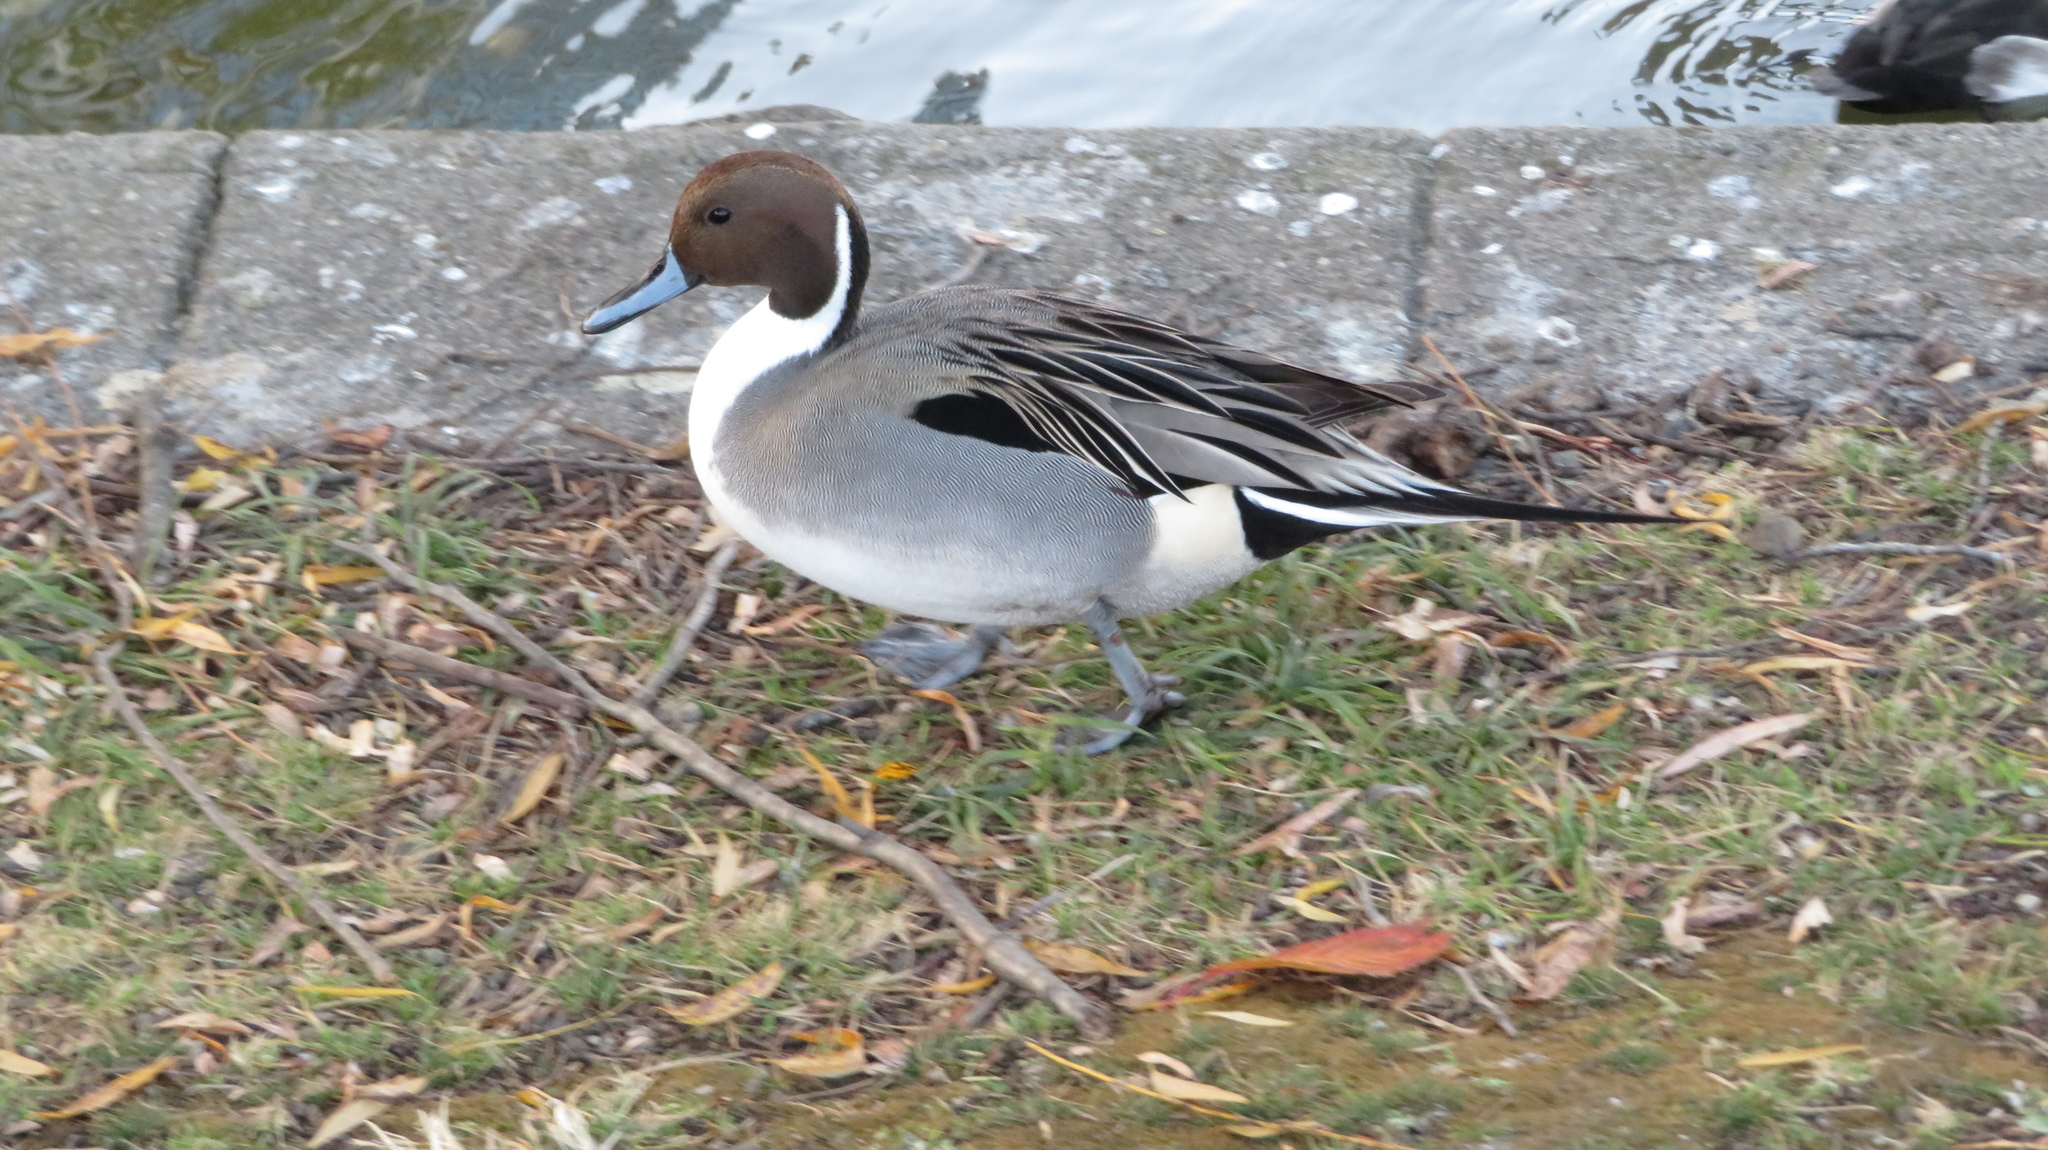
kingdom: Animalia
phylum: Chordata
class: Aves
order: Anseriformes
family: Anatidae
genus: Anas
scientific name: Anas acuta
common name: Northern pintail
